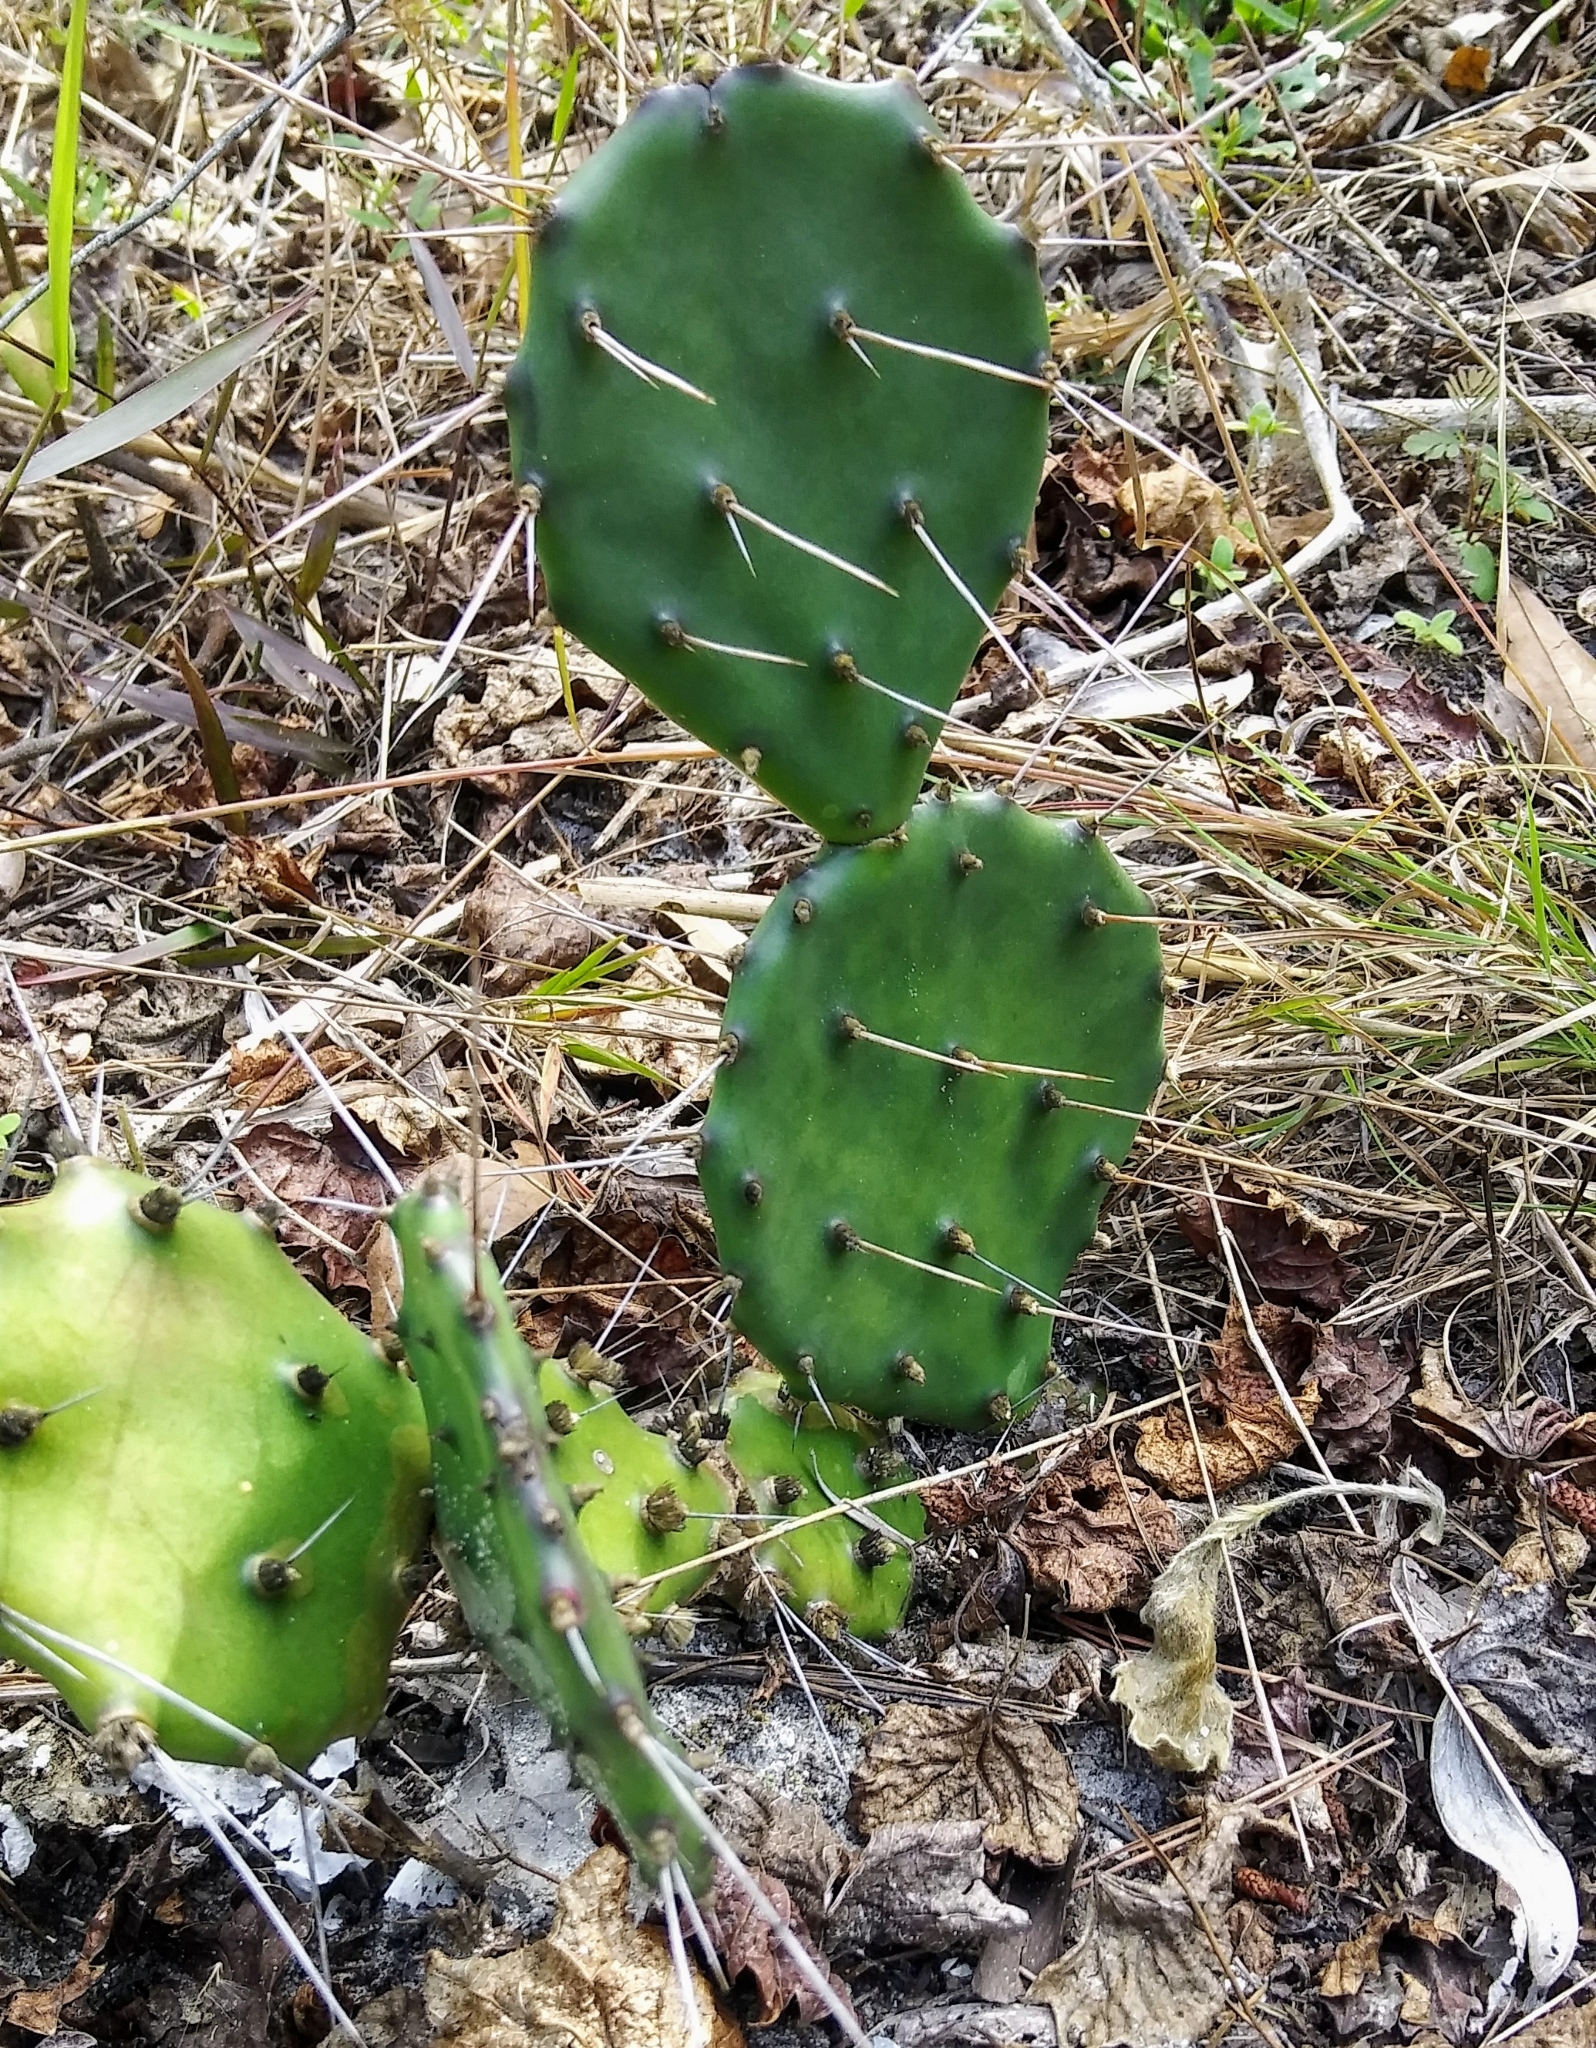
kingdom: Plantae
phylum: Tracheophyta
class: Magnoliopsida
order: Caryophyllales
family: Cactaceae
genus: Opuntia
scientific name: Opuntia austrina
